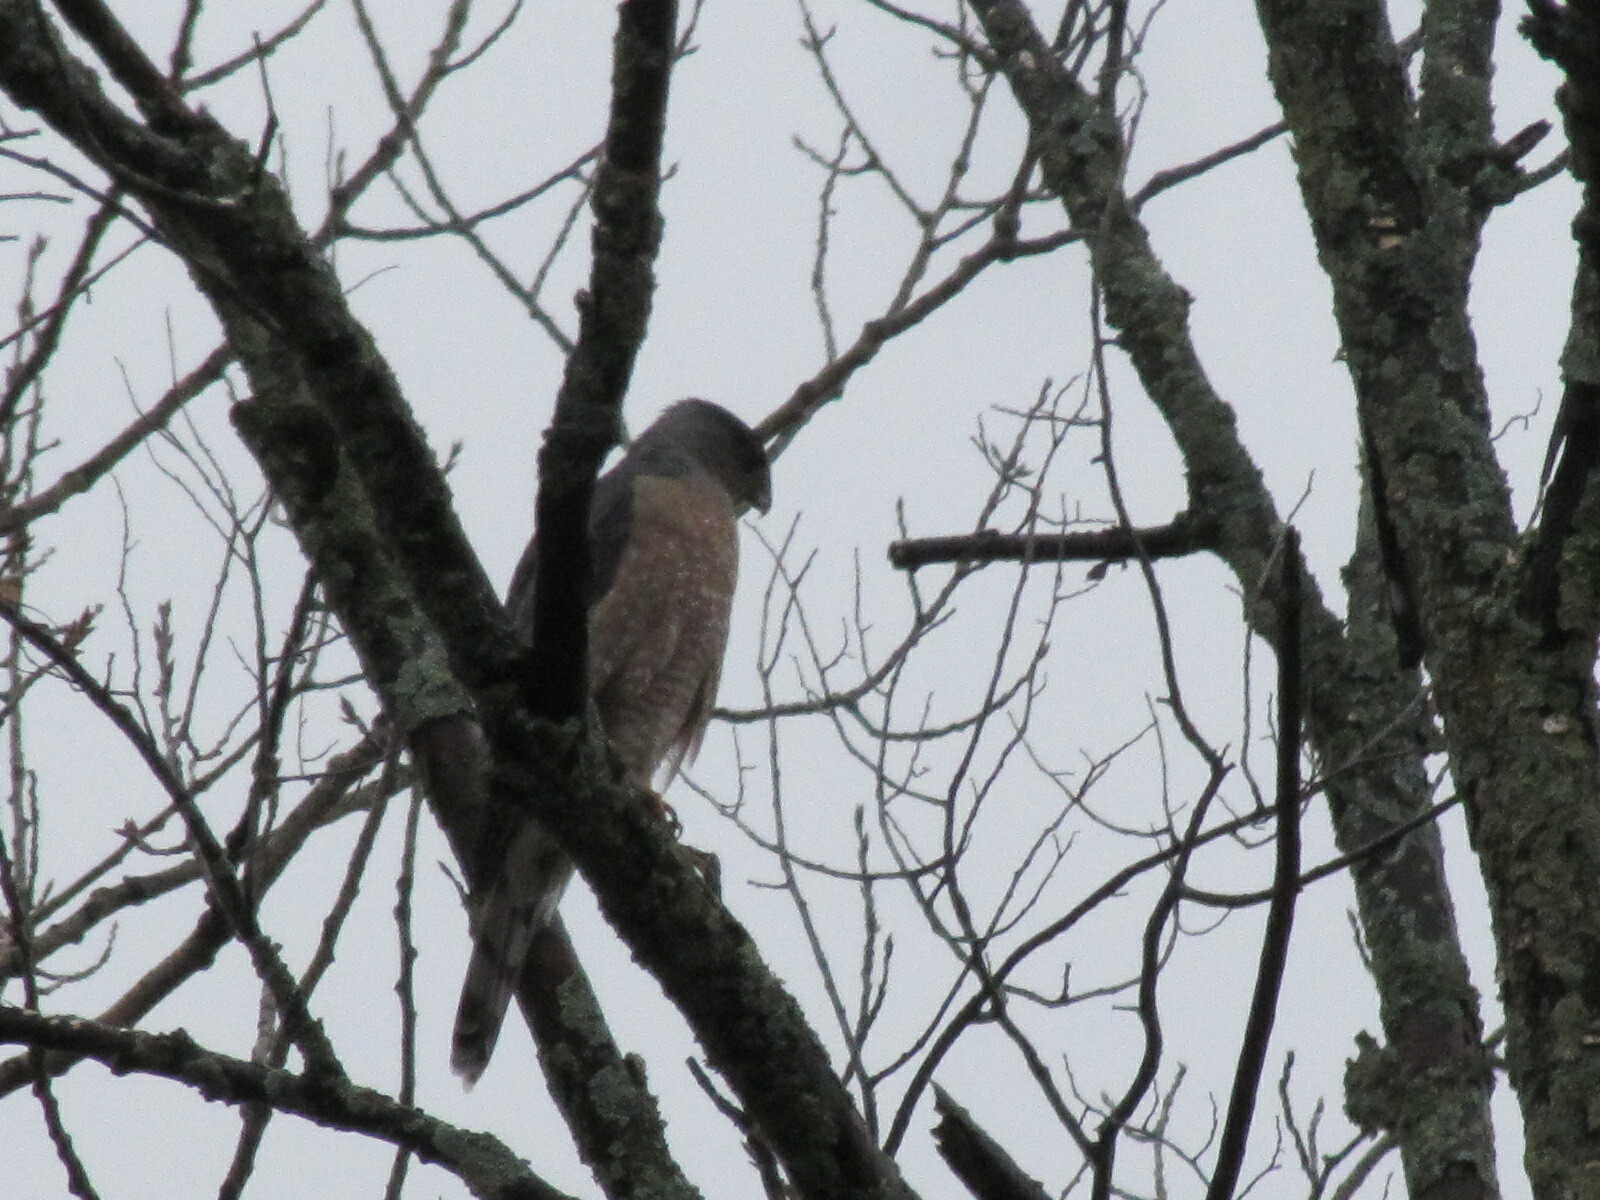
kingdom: Animalia
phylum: Chordata
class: Aves
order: Accipitriformes
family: Accipitridae
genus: Accipiter
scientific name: Accipiter cooperii
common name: Cooper's hawk
